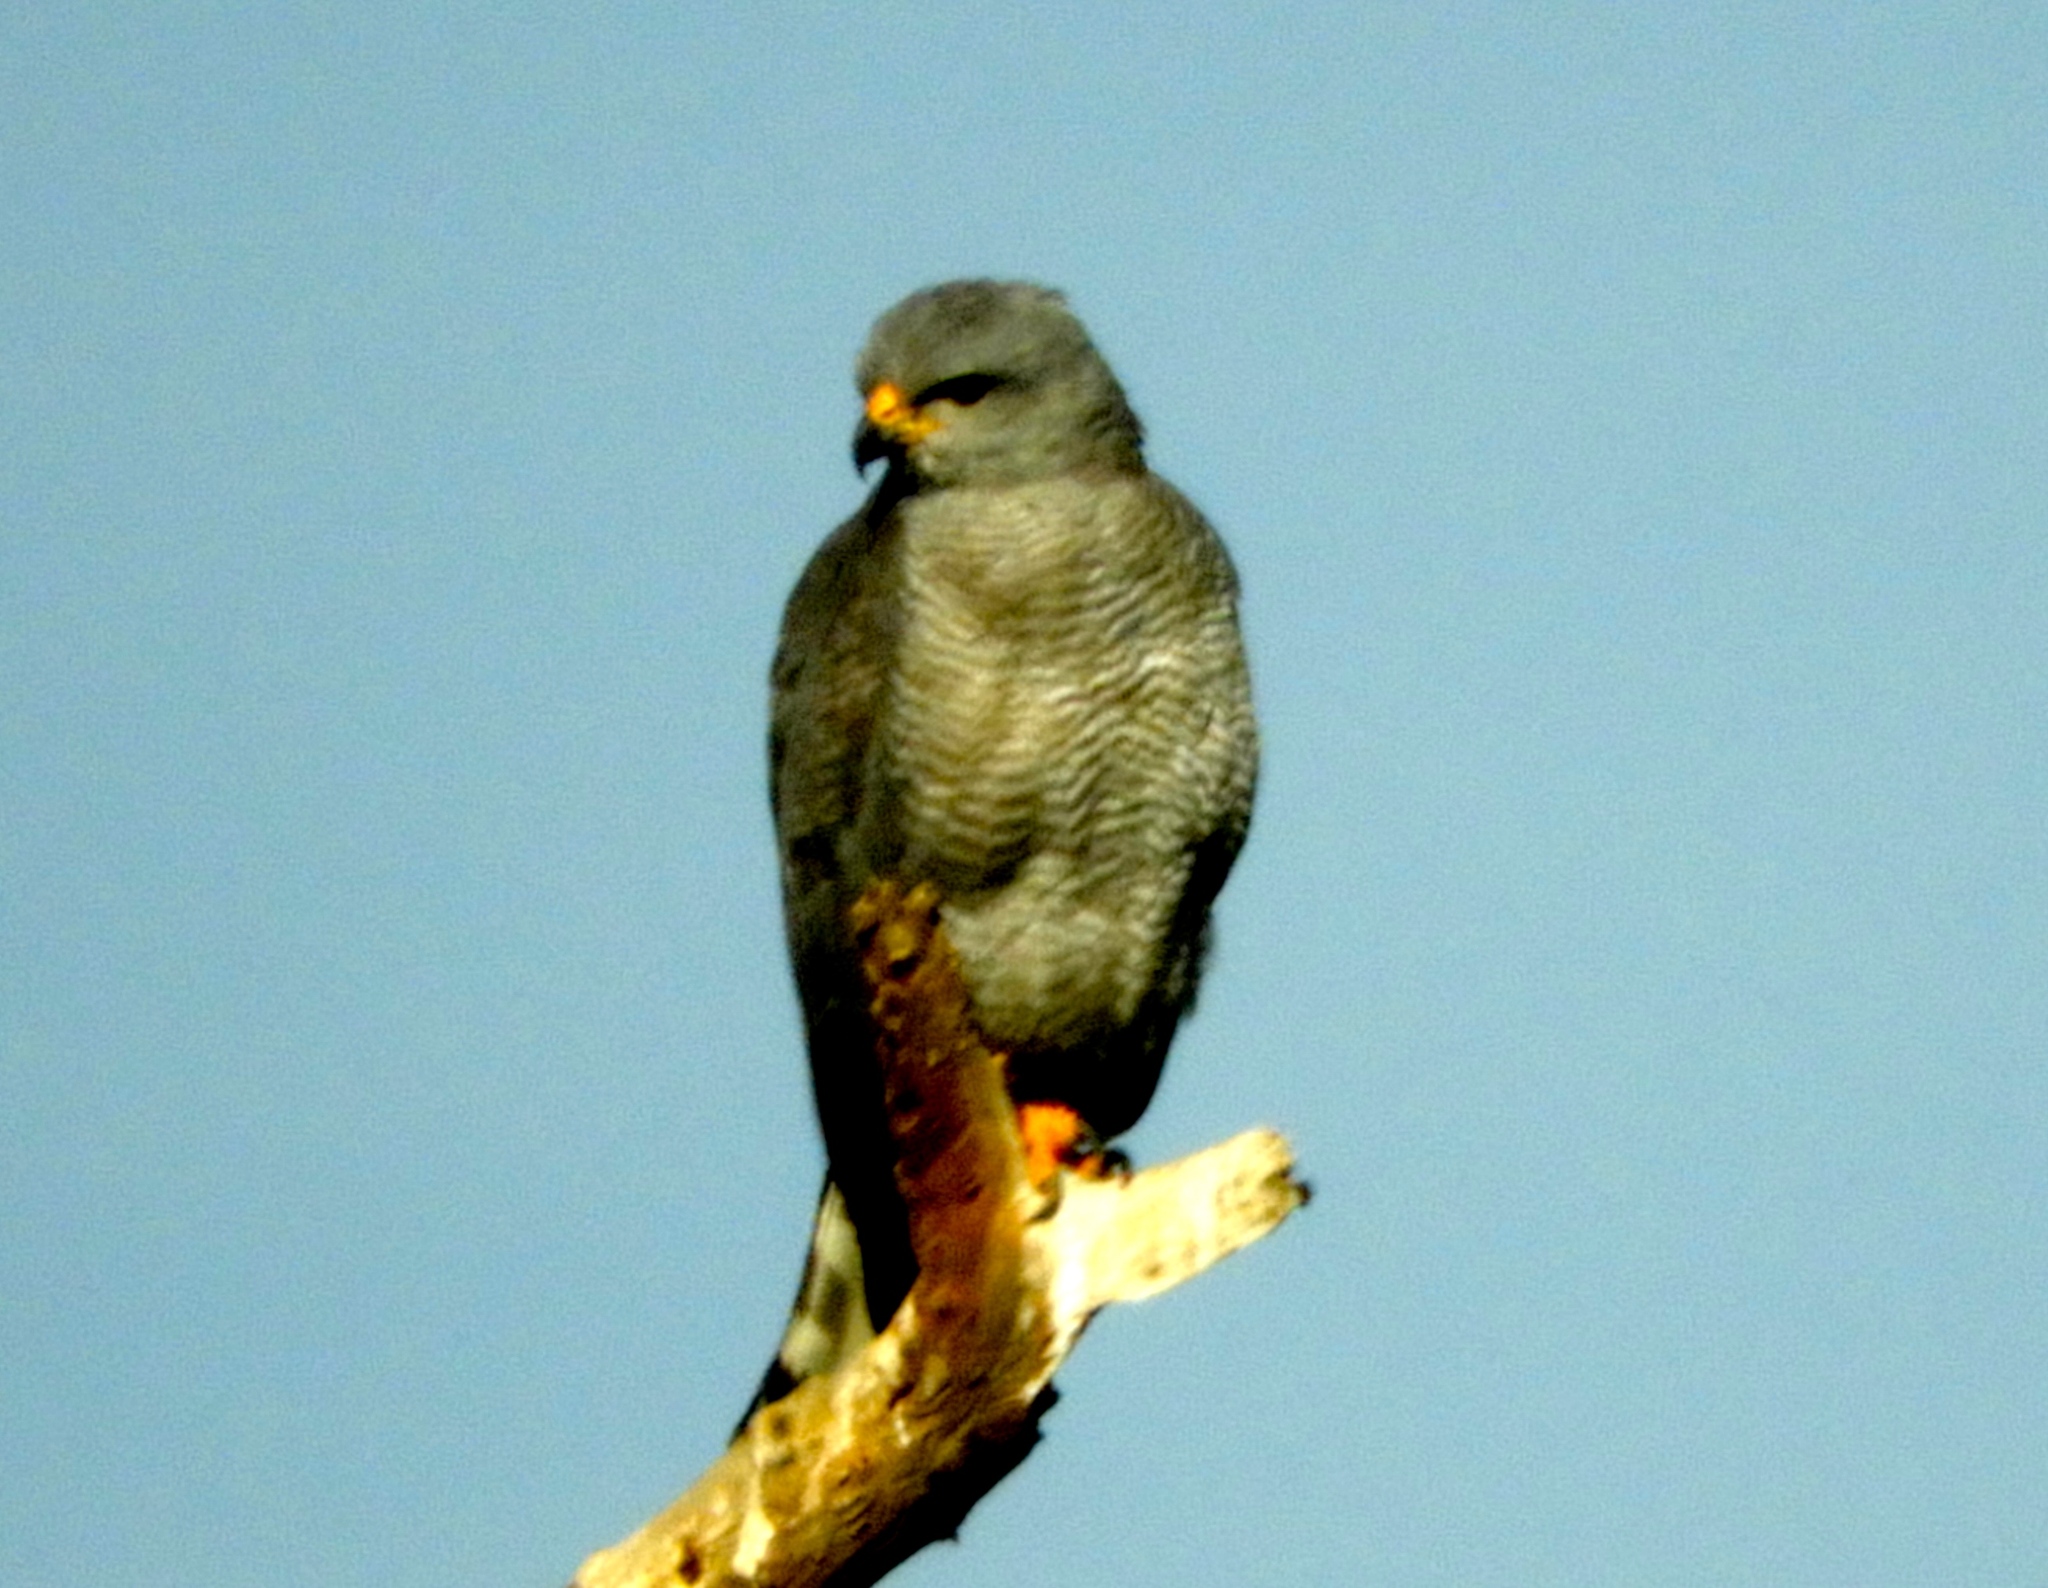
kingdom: Animalia
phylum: Chordata
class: Aves
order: Accipitriformes
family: Accipitridae
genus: Buteo
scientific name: Buteo nitidus
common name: Grey-lined hawk
